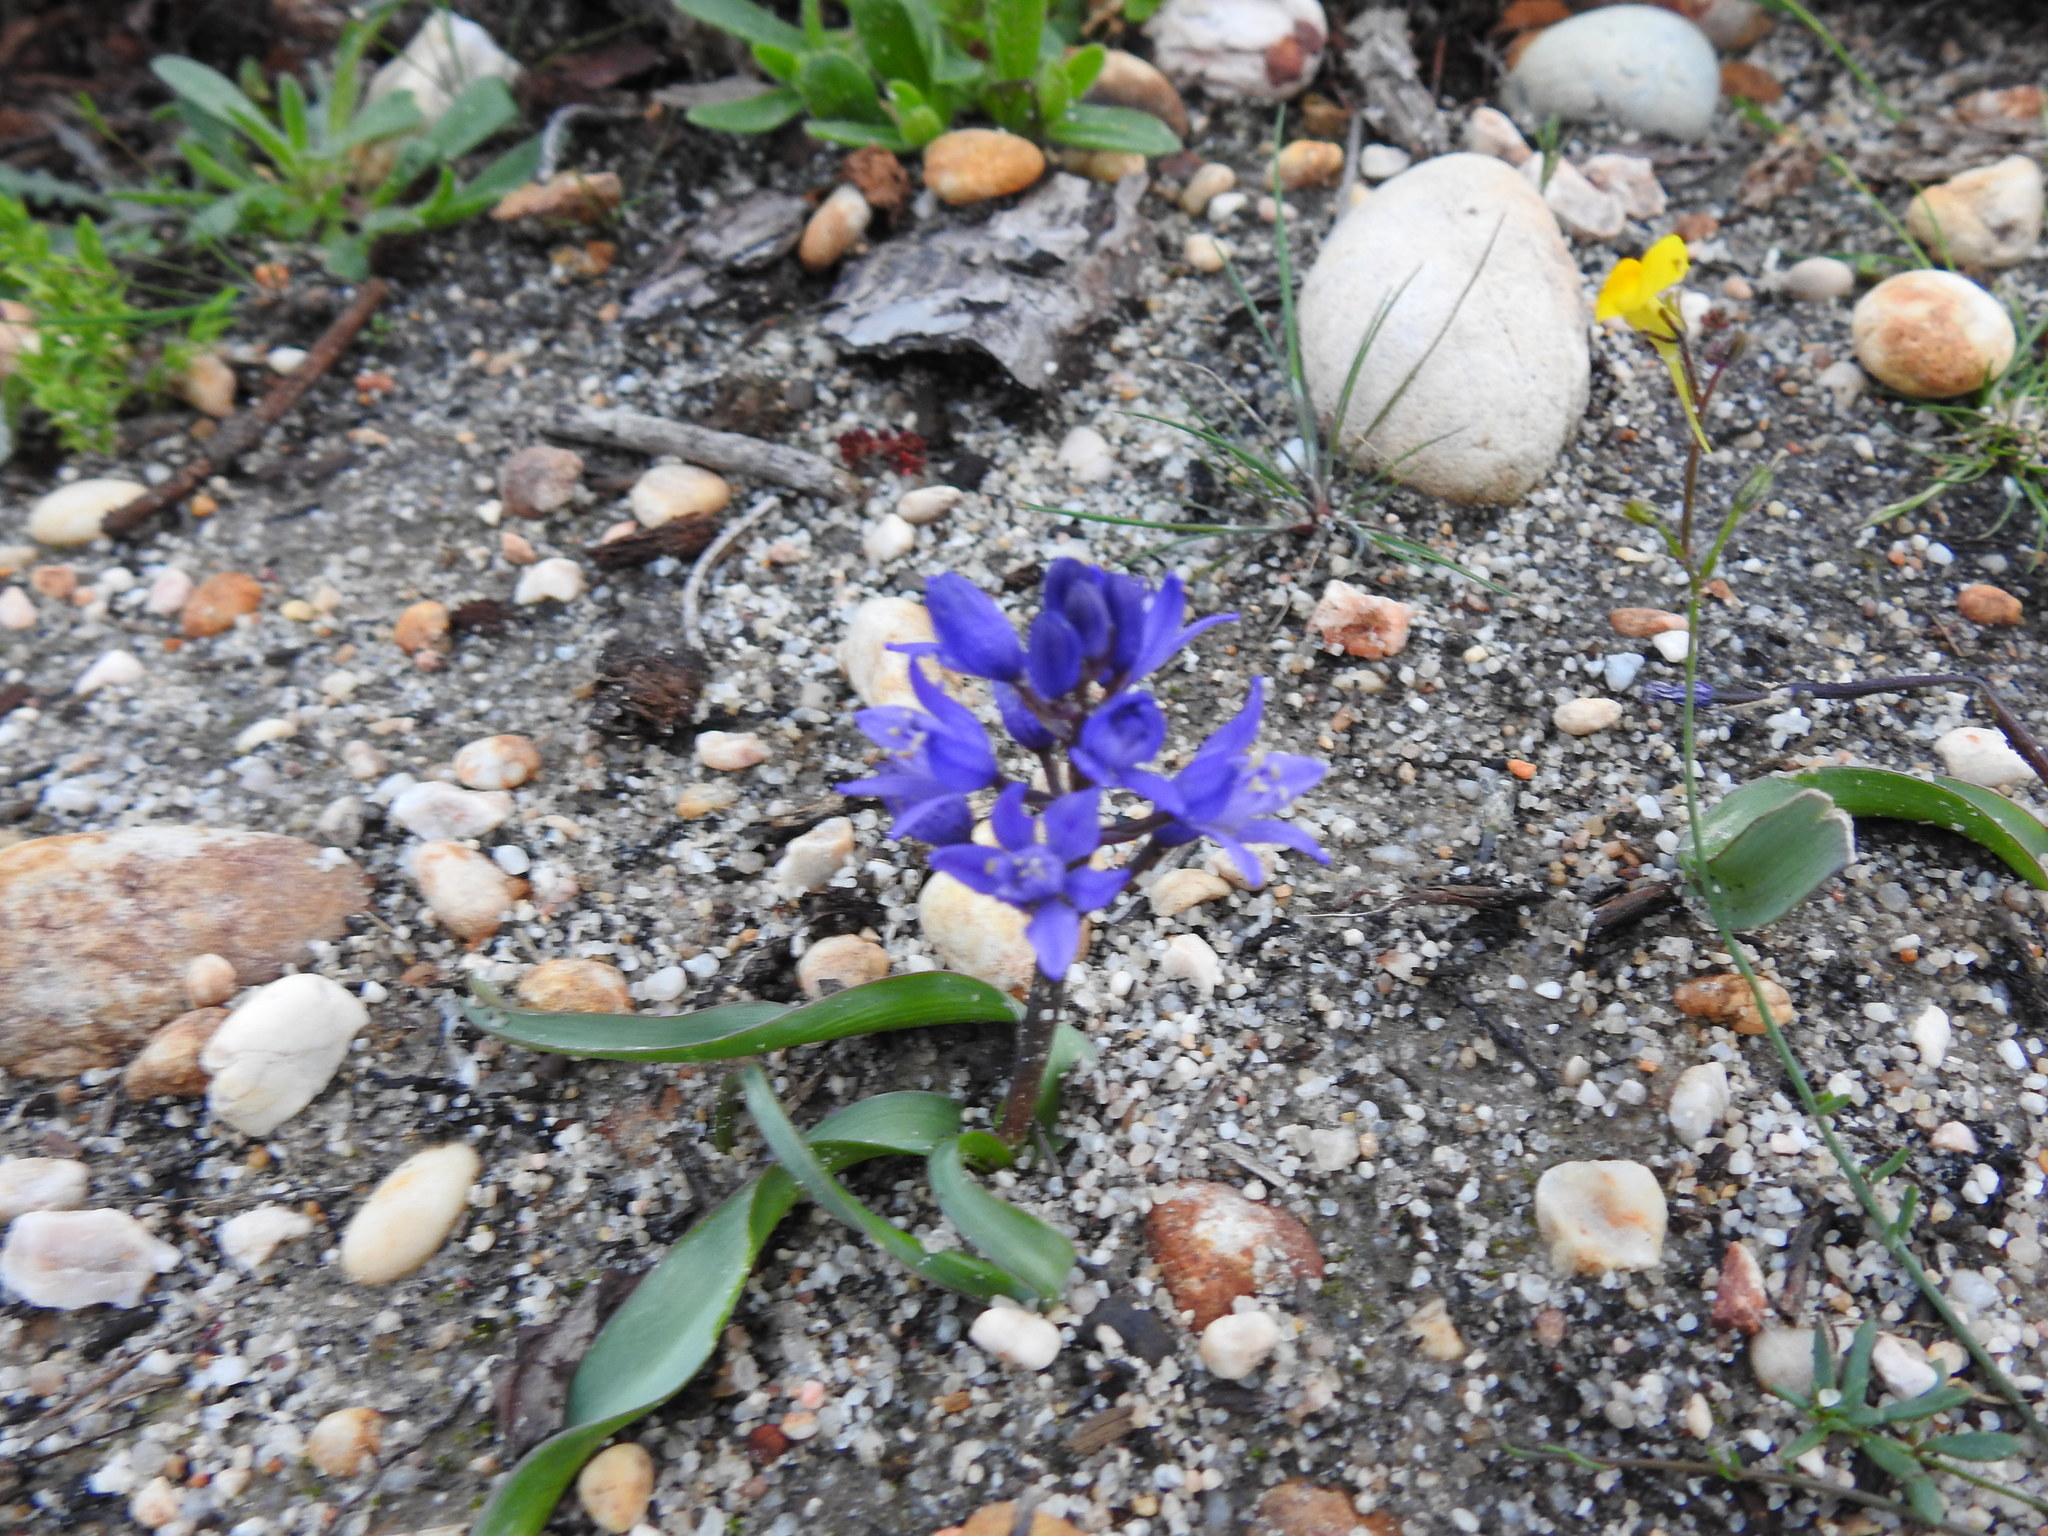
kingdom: Plantae
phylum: Tracheophyta
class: Liliopsida
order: Asparagales
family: Asparagaceae
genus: Scilla
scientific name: Scilla verna
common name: Spring squill
